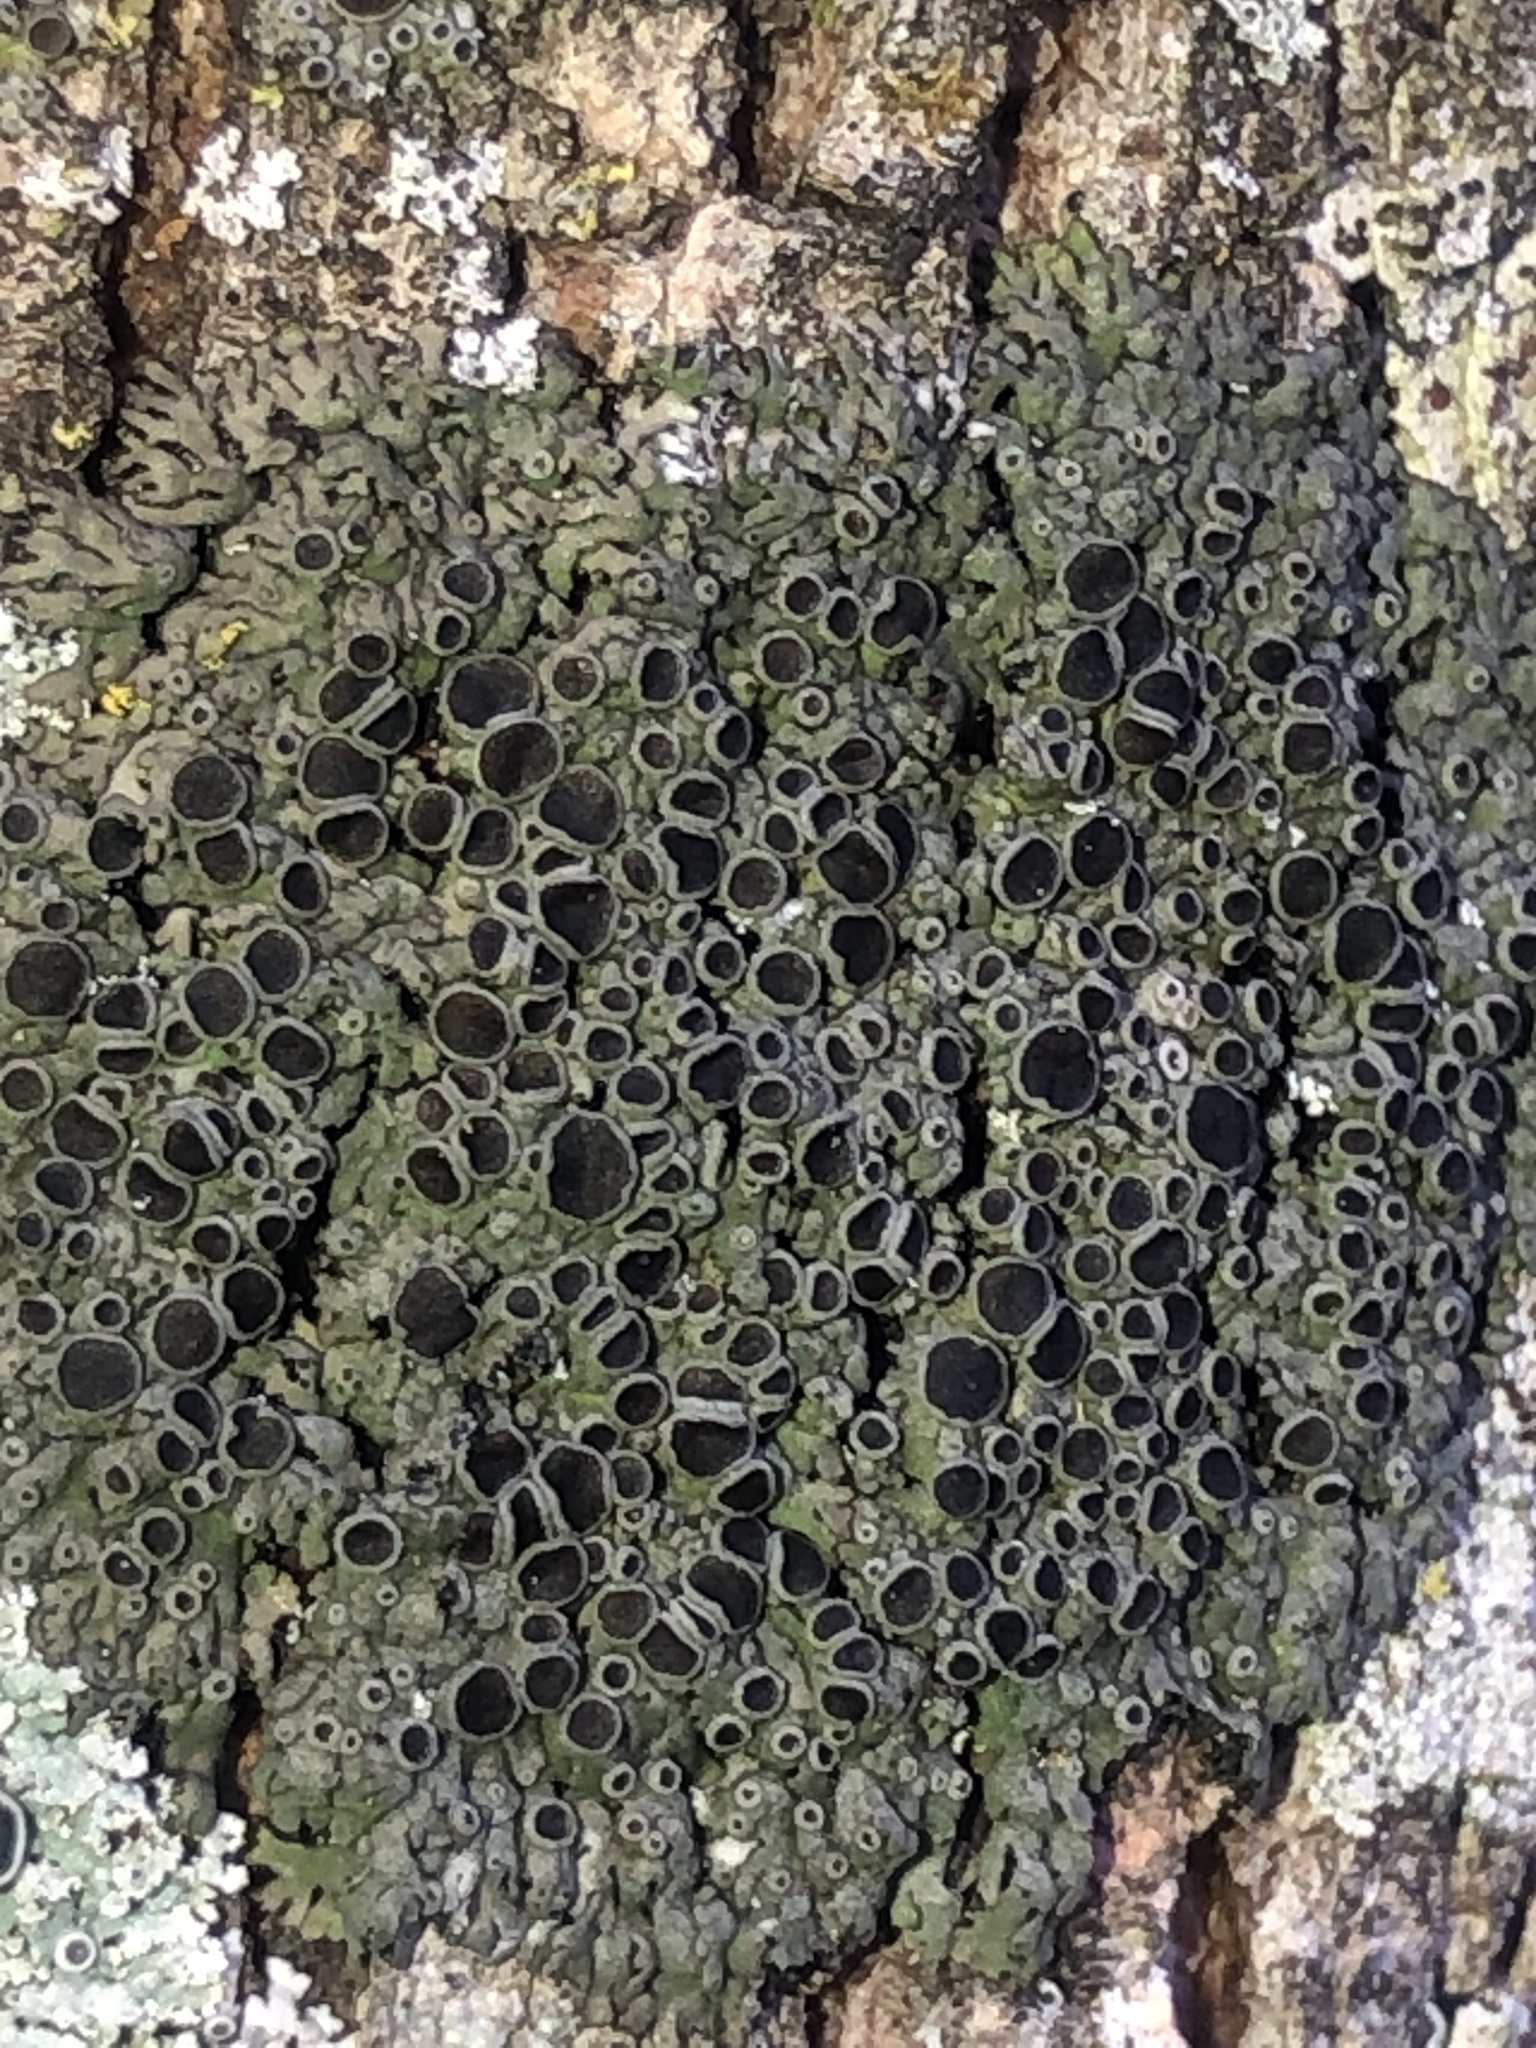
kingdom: Fungi
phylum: Ascomycota
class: Lecanoromycetes
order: Caliciales
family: Physciaceae
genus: Physcia
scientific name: Physcia pumilior
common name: Lesser gray legs
